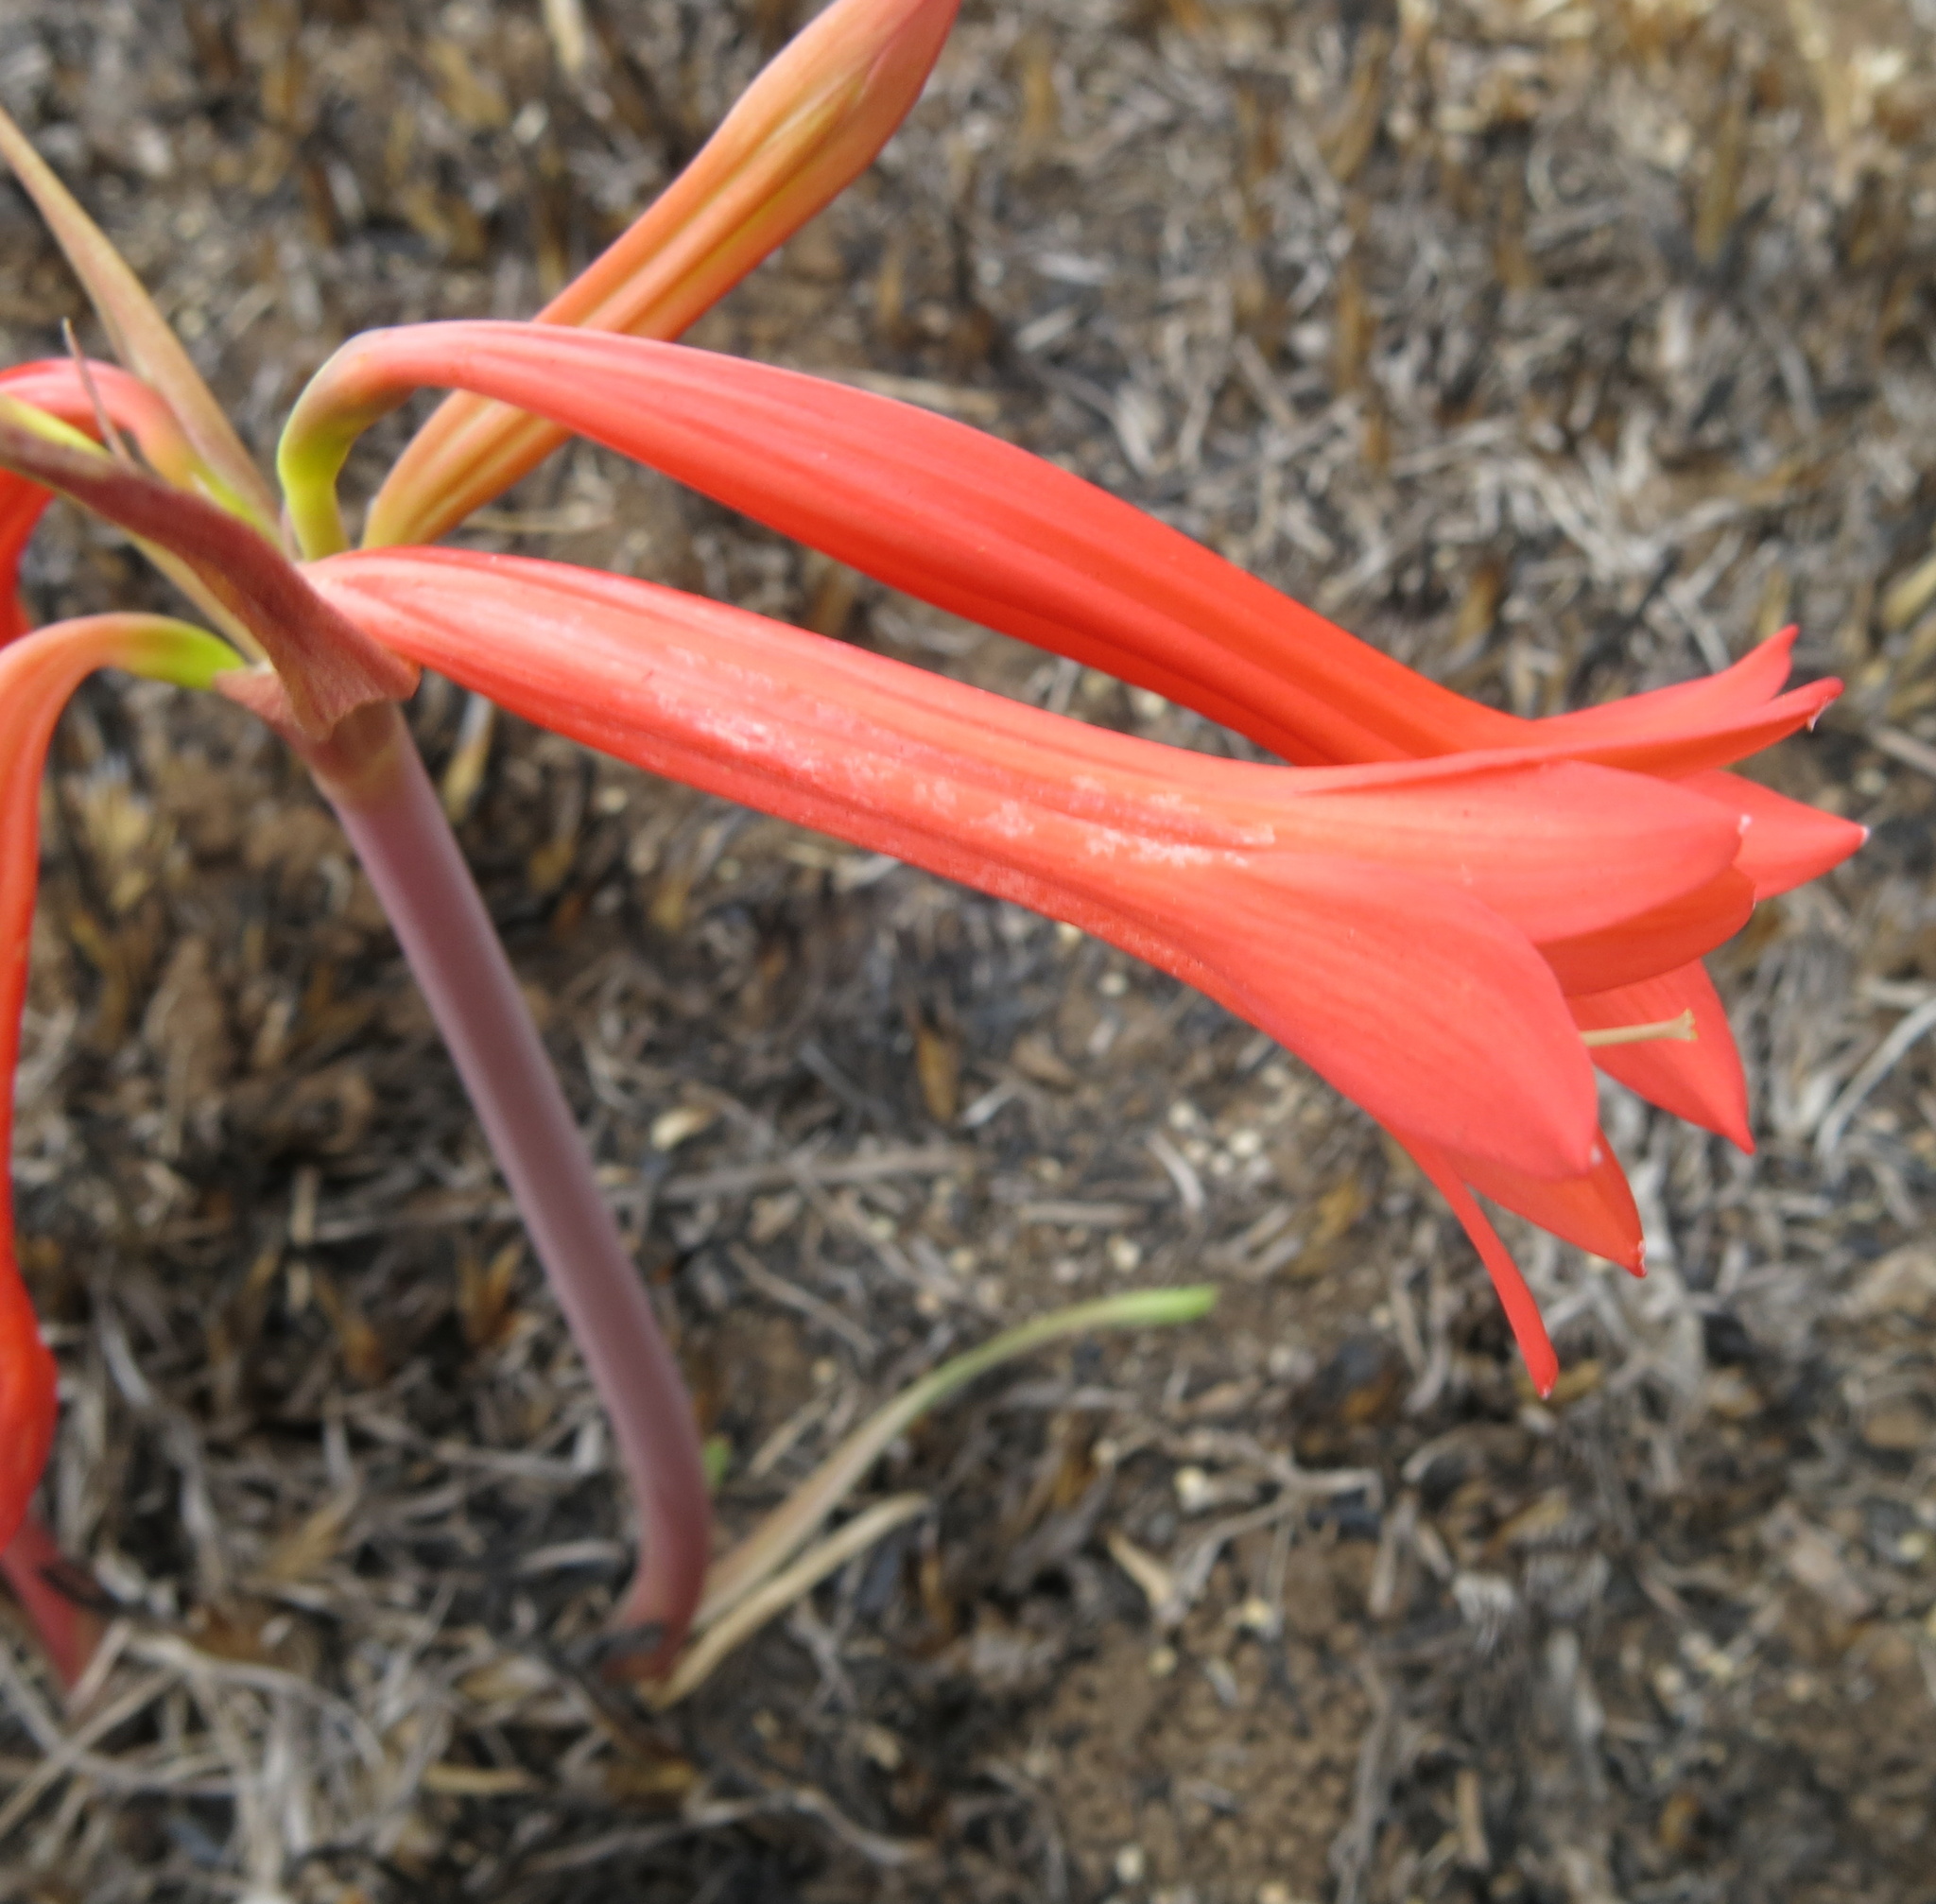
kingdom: Plantae
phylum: Tracheophyta
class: Liliopsida
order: Asparagales
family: Amaryllidaceae
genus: Cyrtanthus
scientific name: Cyrtanthus contractus
